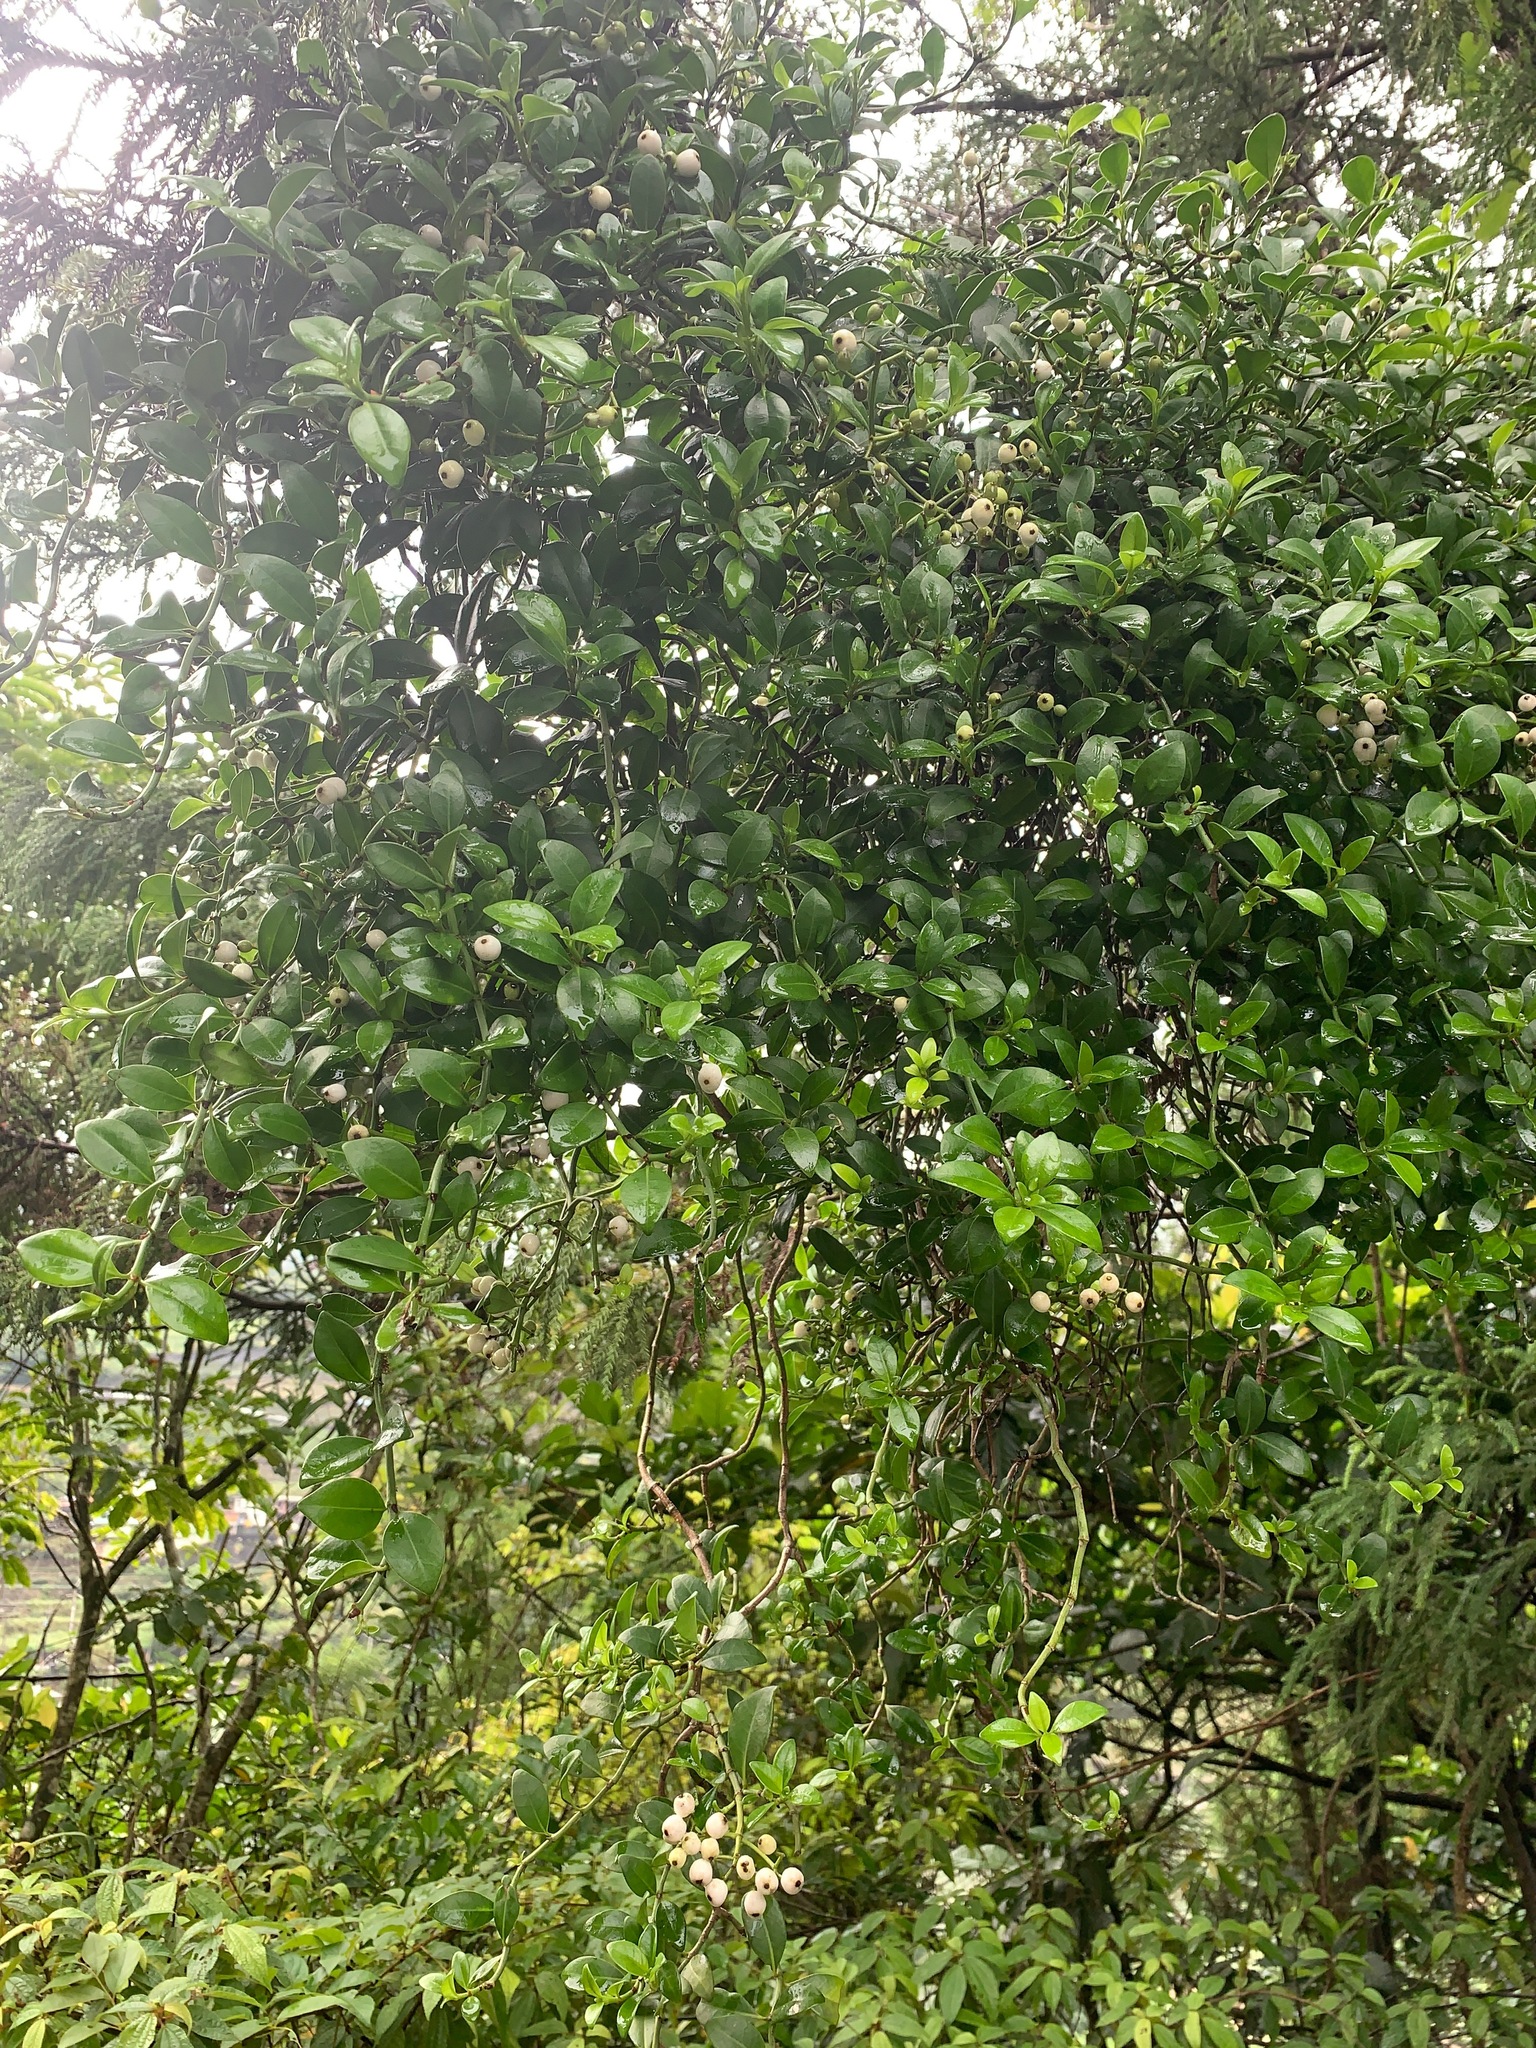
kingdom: Plantae
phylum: Tracheophyta
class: Magnoliopsida
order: Gentianales
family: Rubiaceae
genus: Psychotria
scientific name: Psychotria serpens
